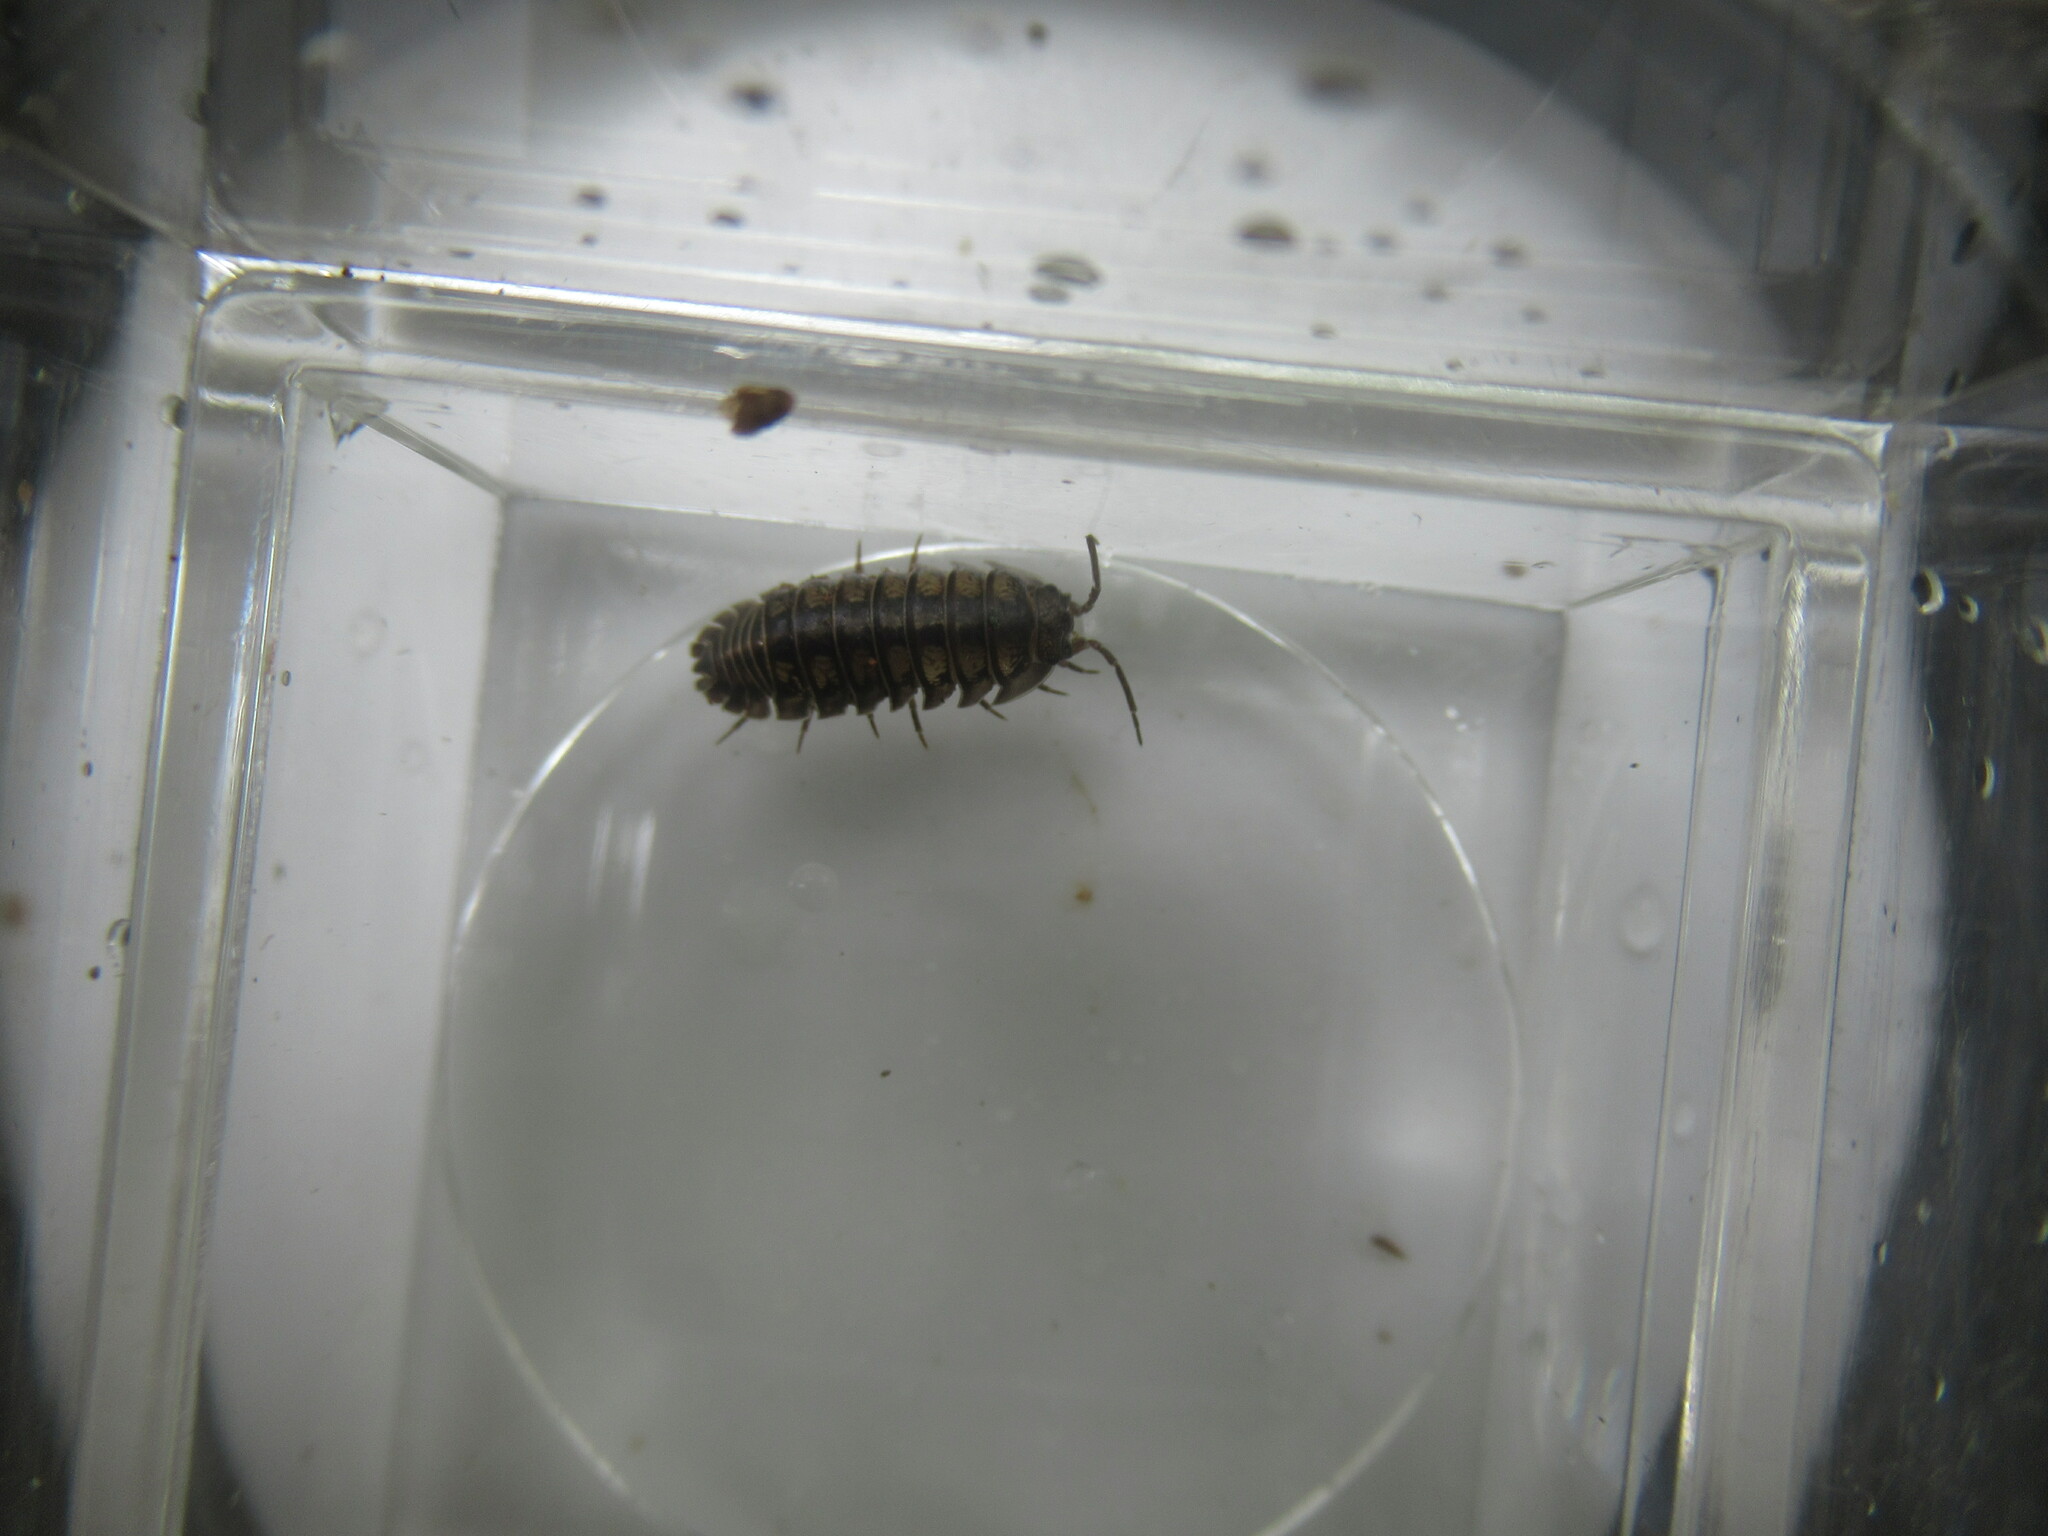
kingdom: Animalia
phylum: Arthropoda
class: Malacostraca
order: Isopoda
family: Armadillidiidae
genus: Armadillidium
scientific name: Armadillidium nasatum
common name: Isopod
